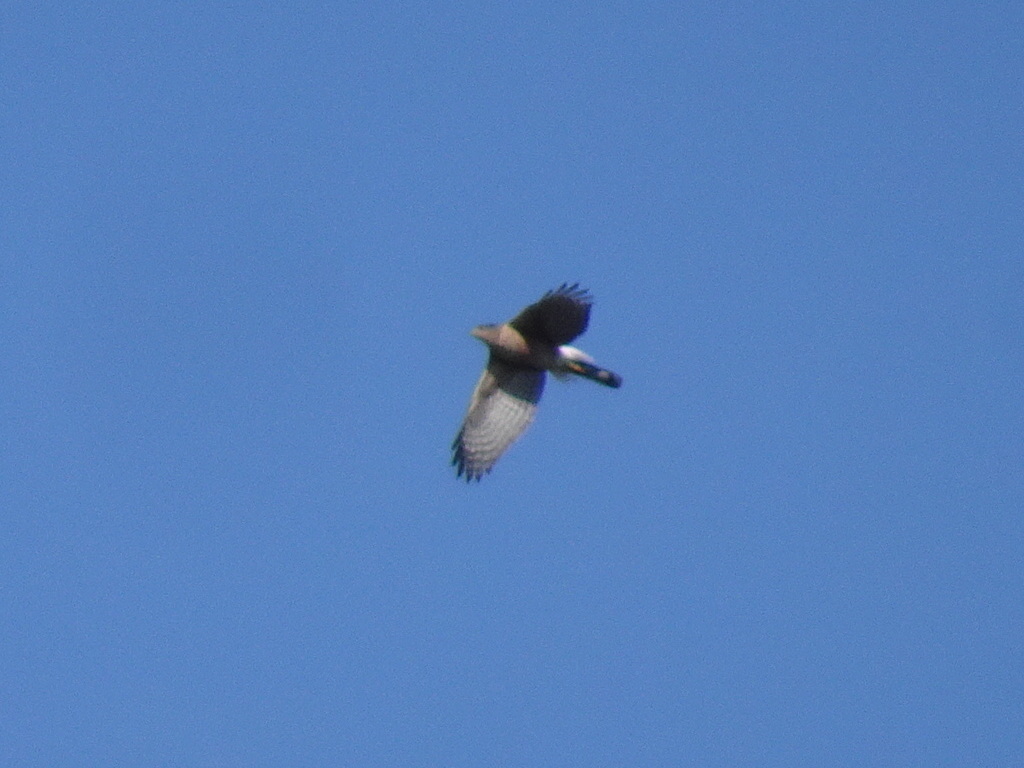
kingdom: Animalia
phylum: Chordata
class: Aves
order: Accipitriformes
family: Accipitridae
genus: Accipiter
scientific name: Accipiter cooperii
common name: Cooper's hawk
